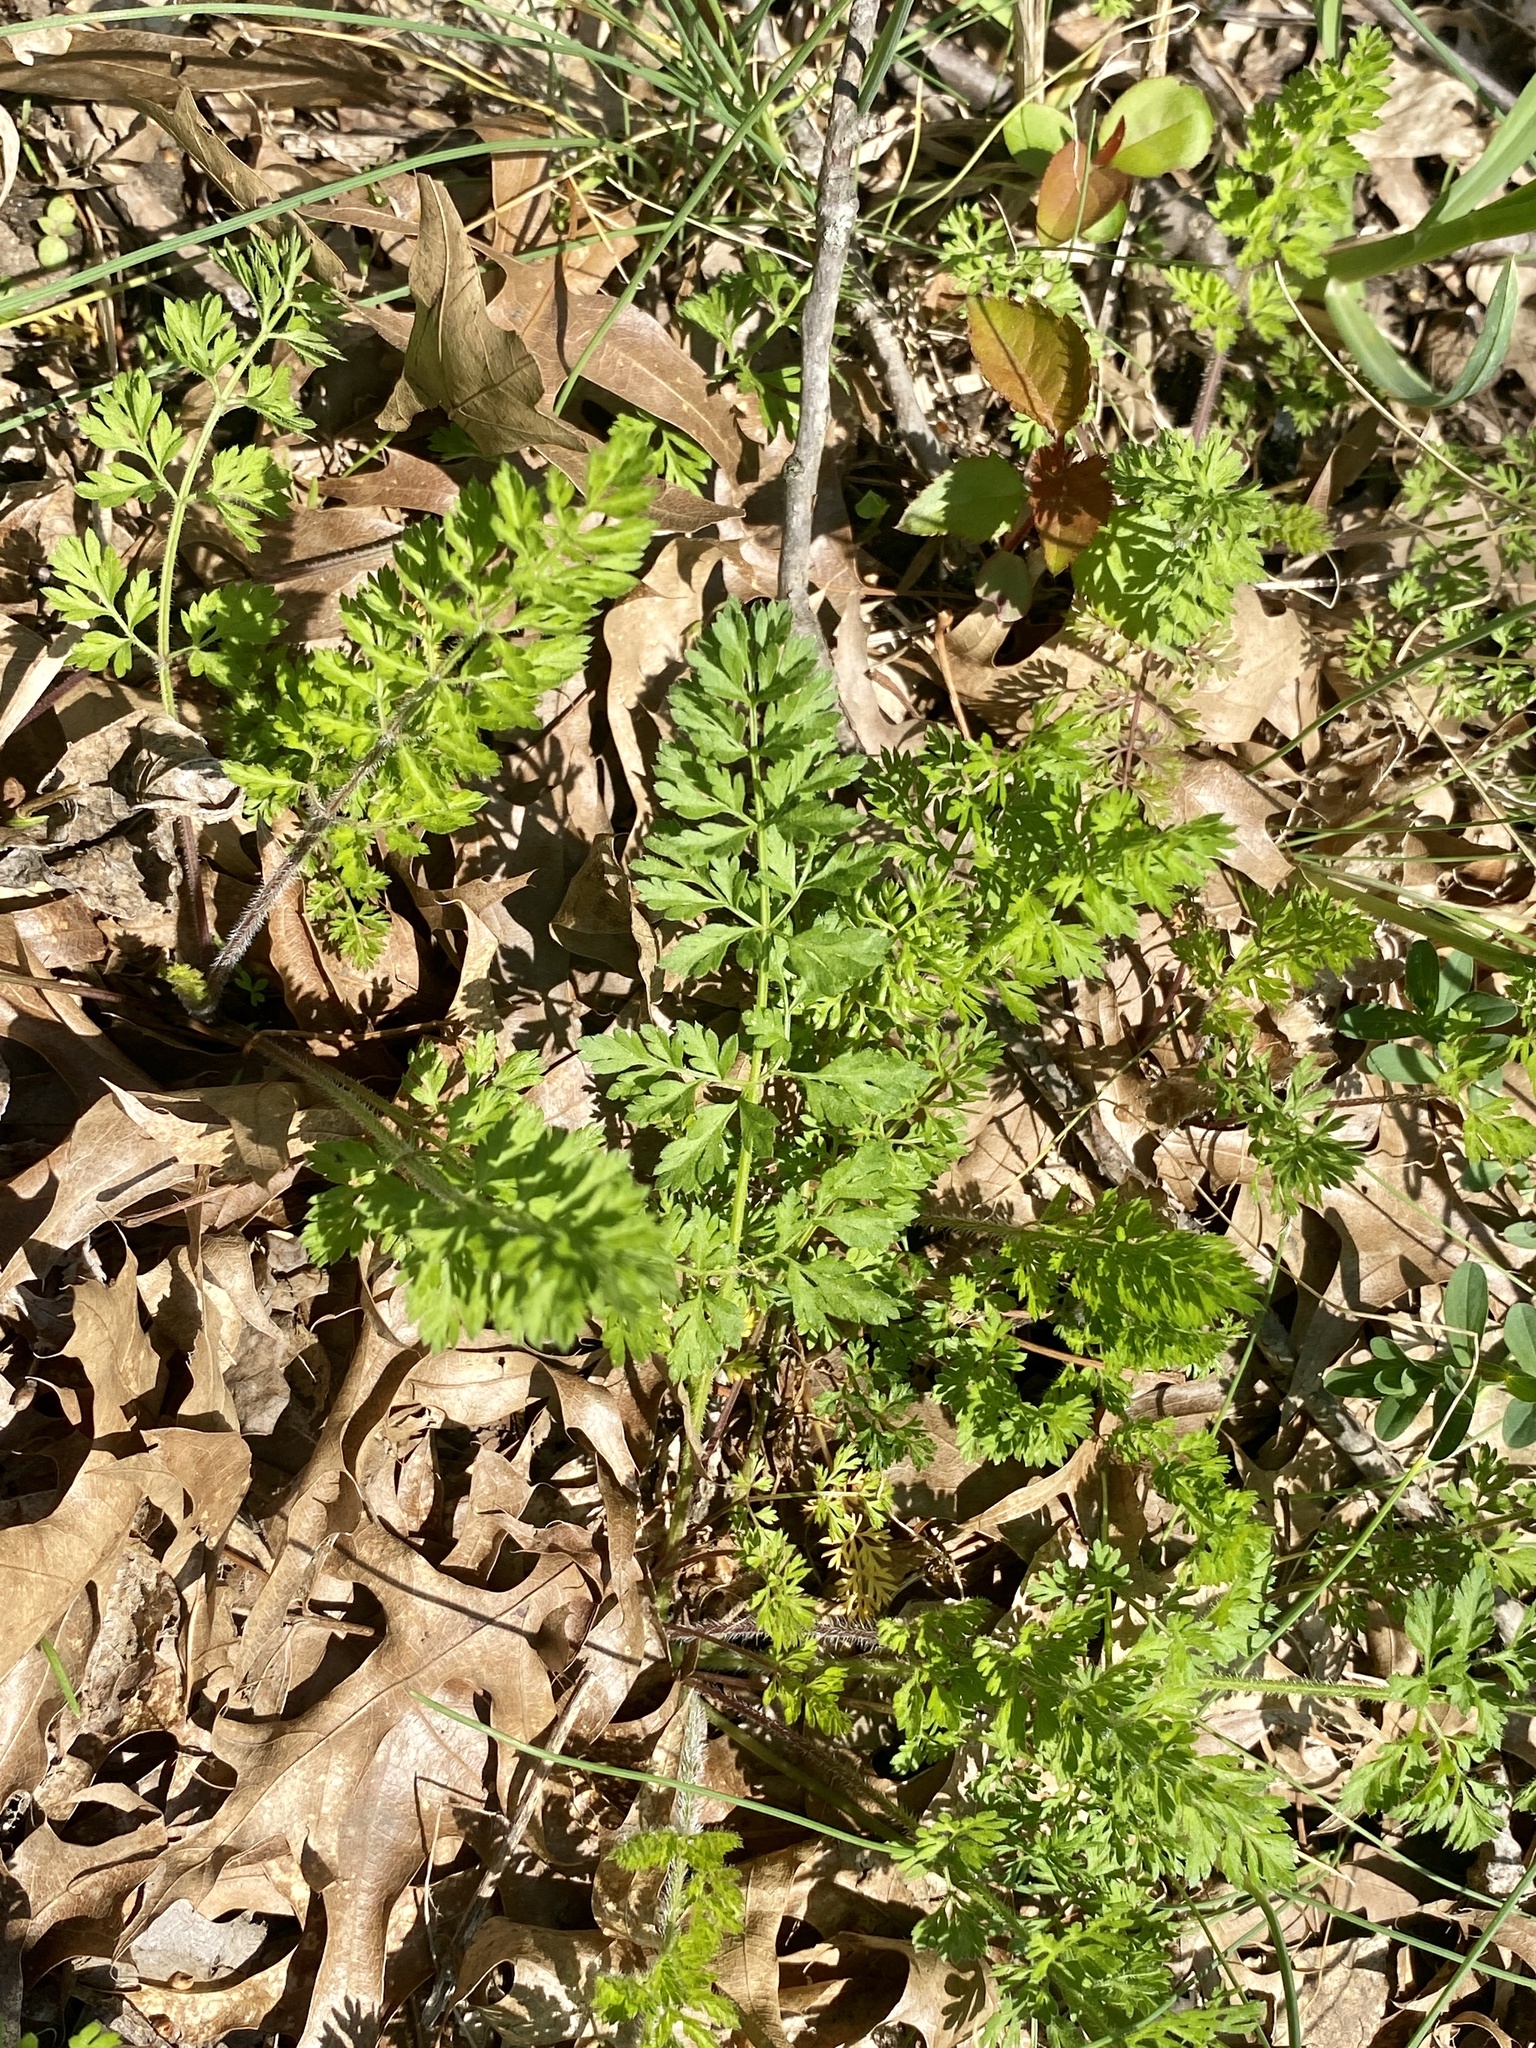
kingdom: Plantae
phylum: Tracheophyta
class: Magnoliopsida
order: Apiales
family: Apiaceae
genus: Daucus
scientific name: Daucus carota
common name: Wild carrot
